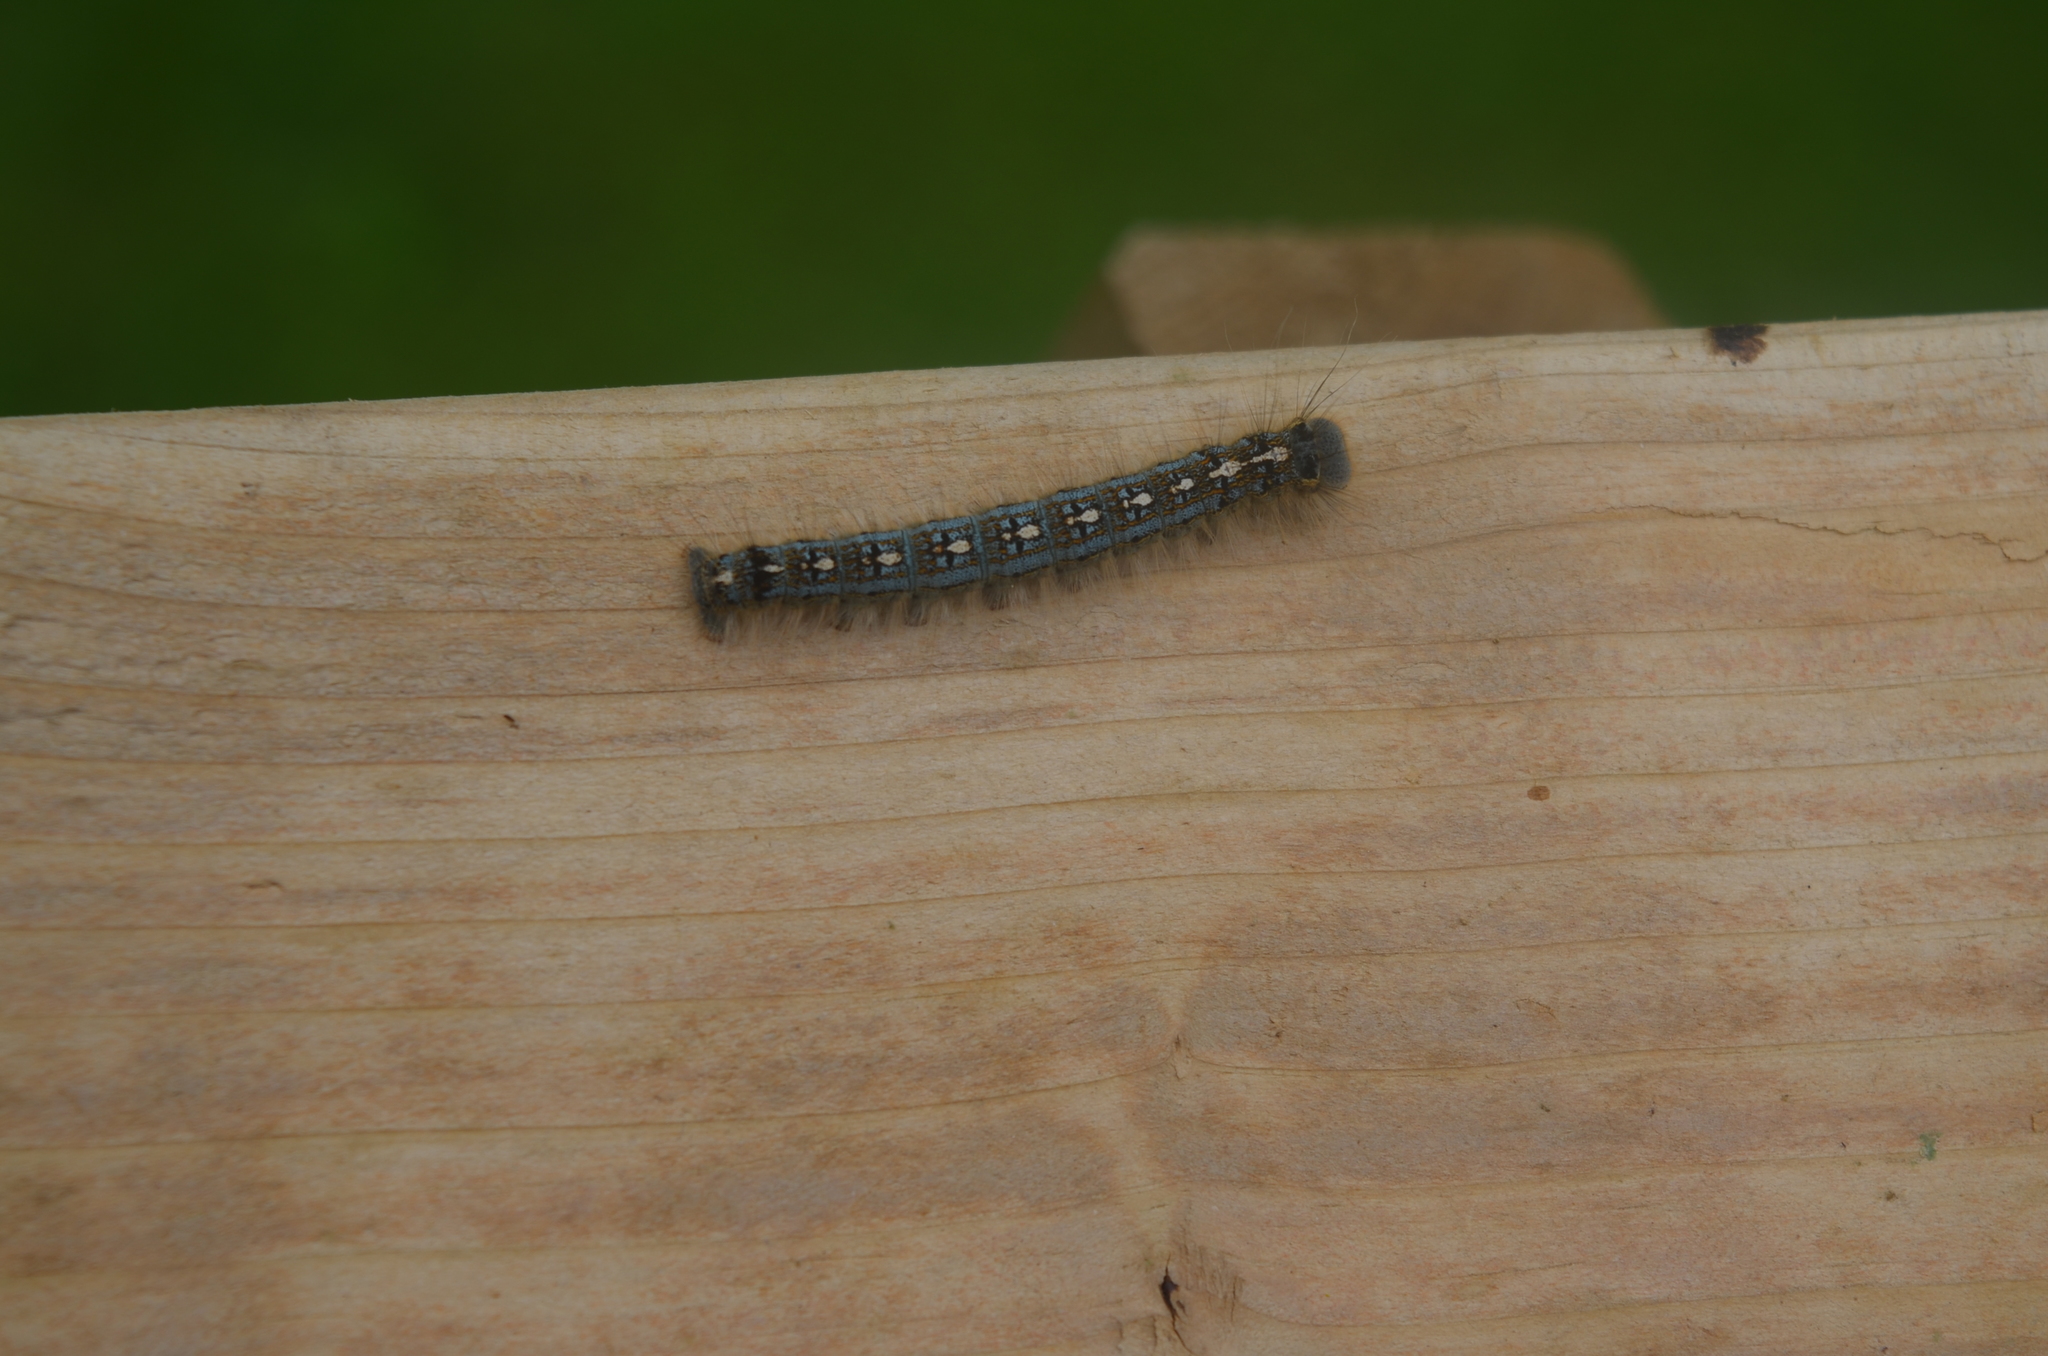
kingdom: Animalia
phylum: Arthropoda
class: Insecta
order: Lepidoptera
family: Lasiocampidae
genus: Malacosoma
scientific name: Malacosoma disstria
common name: Forest tent caterpillar
